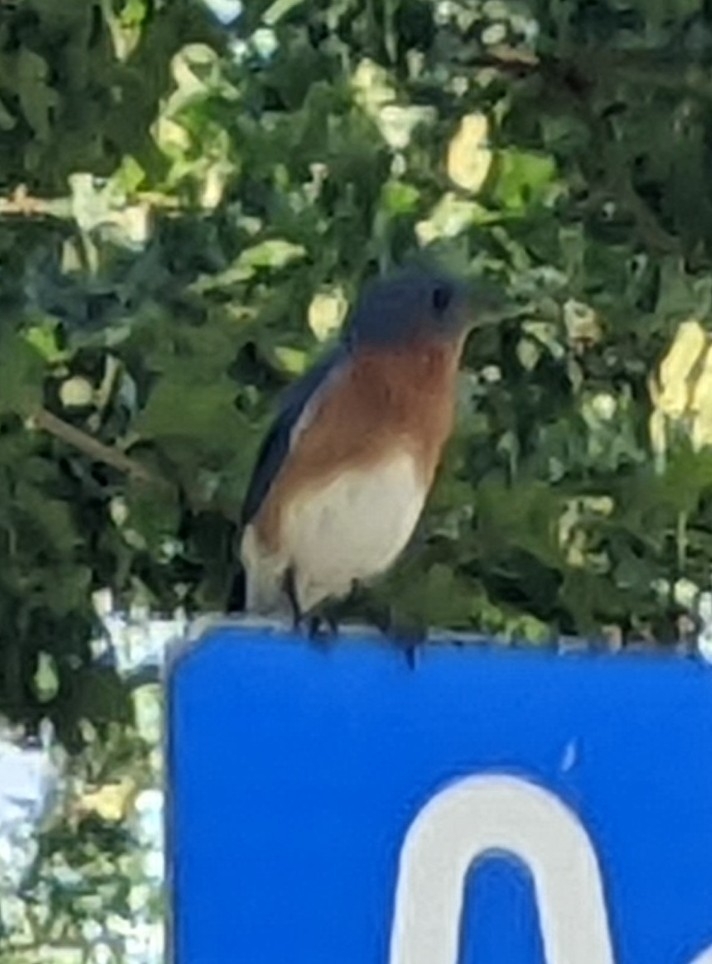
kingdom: Animalia
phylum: Chordata
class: Aves
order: Passeriformes
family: Turdidae
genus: Sialia
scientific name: Sialia sialis
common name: Eastern bluebird
